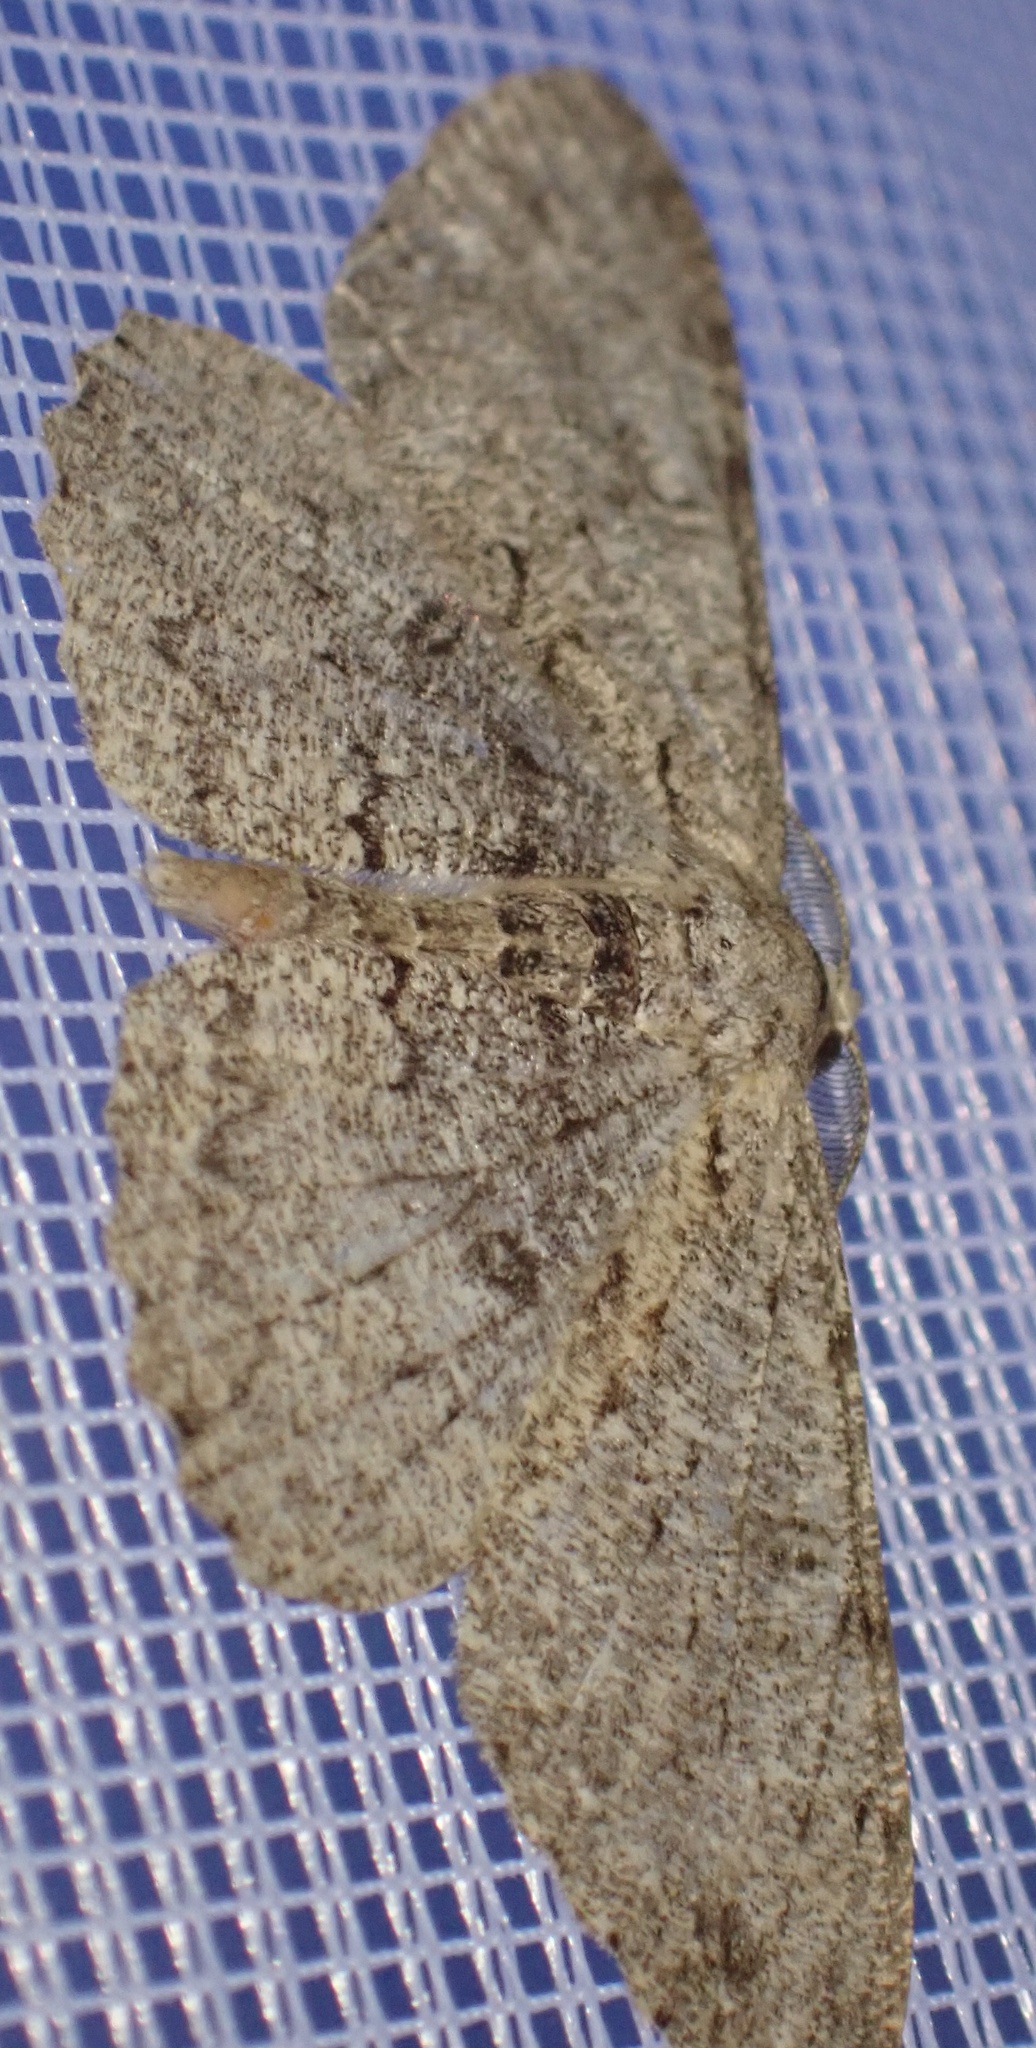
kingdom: Animalia
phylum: Arthropoda
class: Insecta
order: Lepidoptera
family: Geometridae
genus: Hypomecis
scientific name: Hypomecis punctinalis
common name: Pale oak beauty
